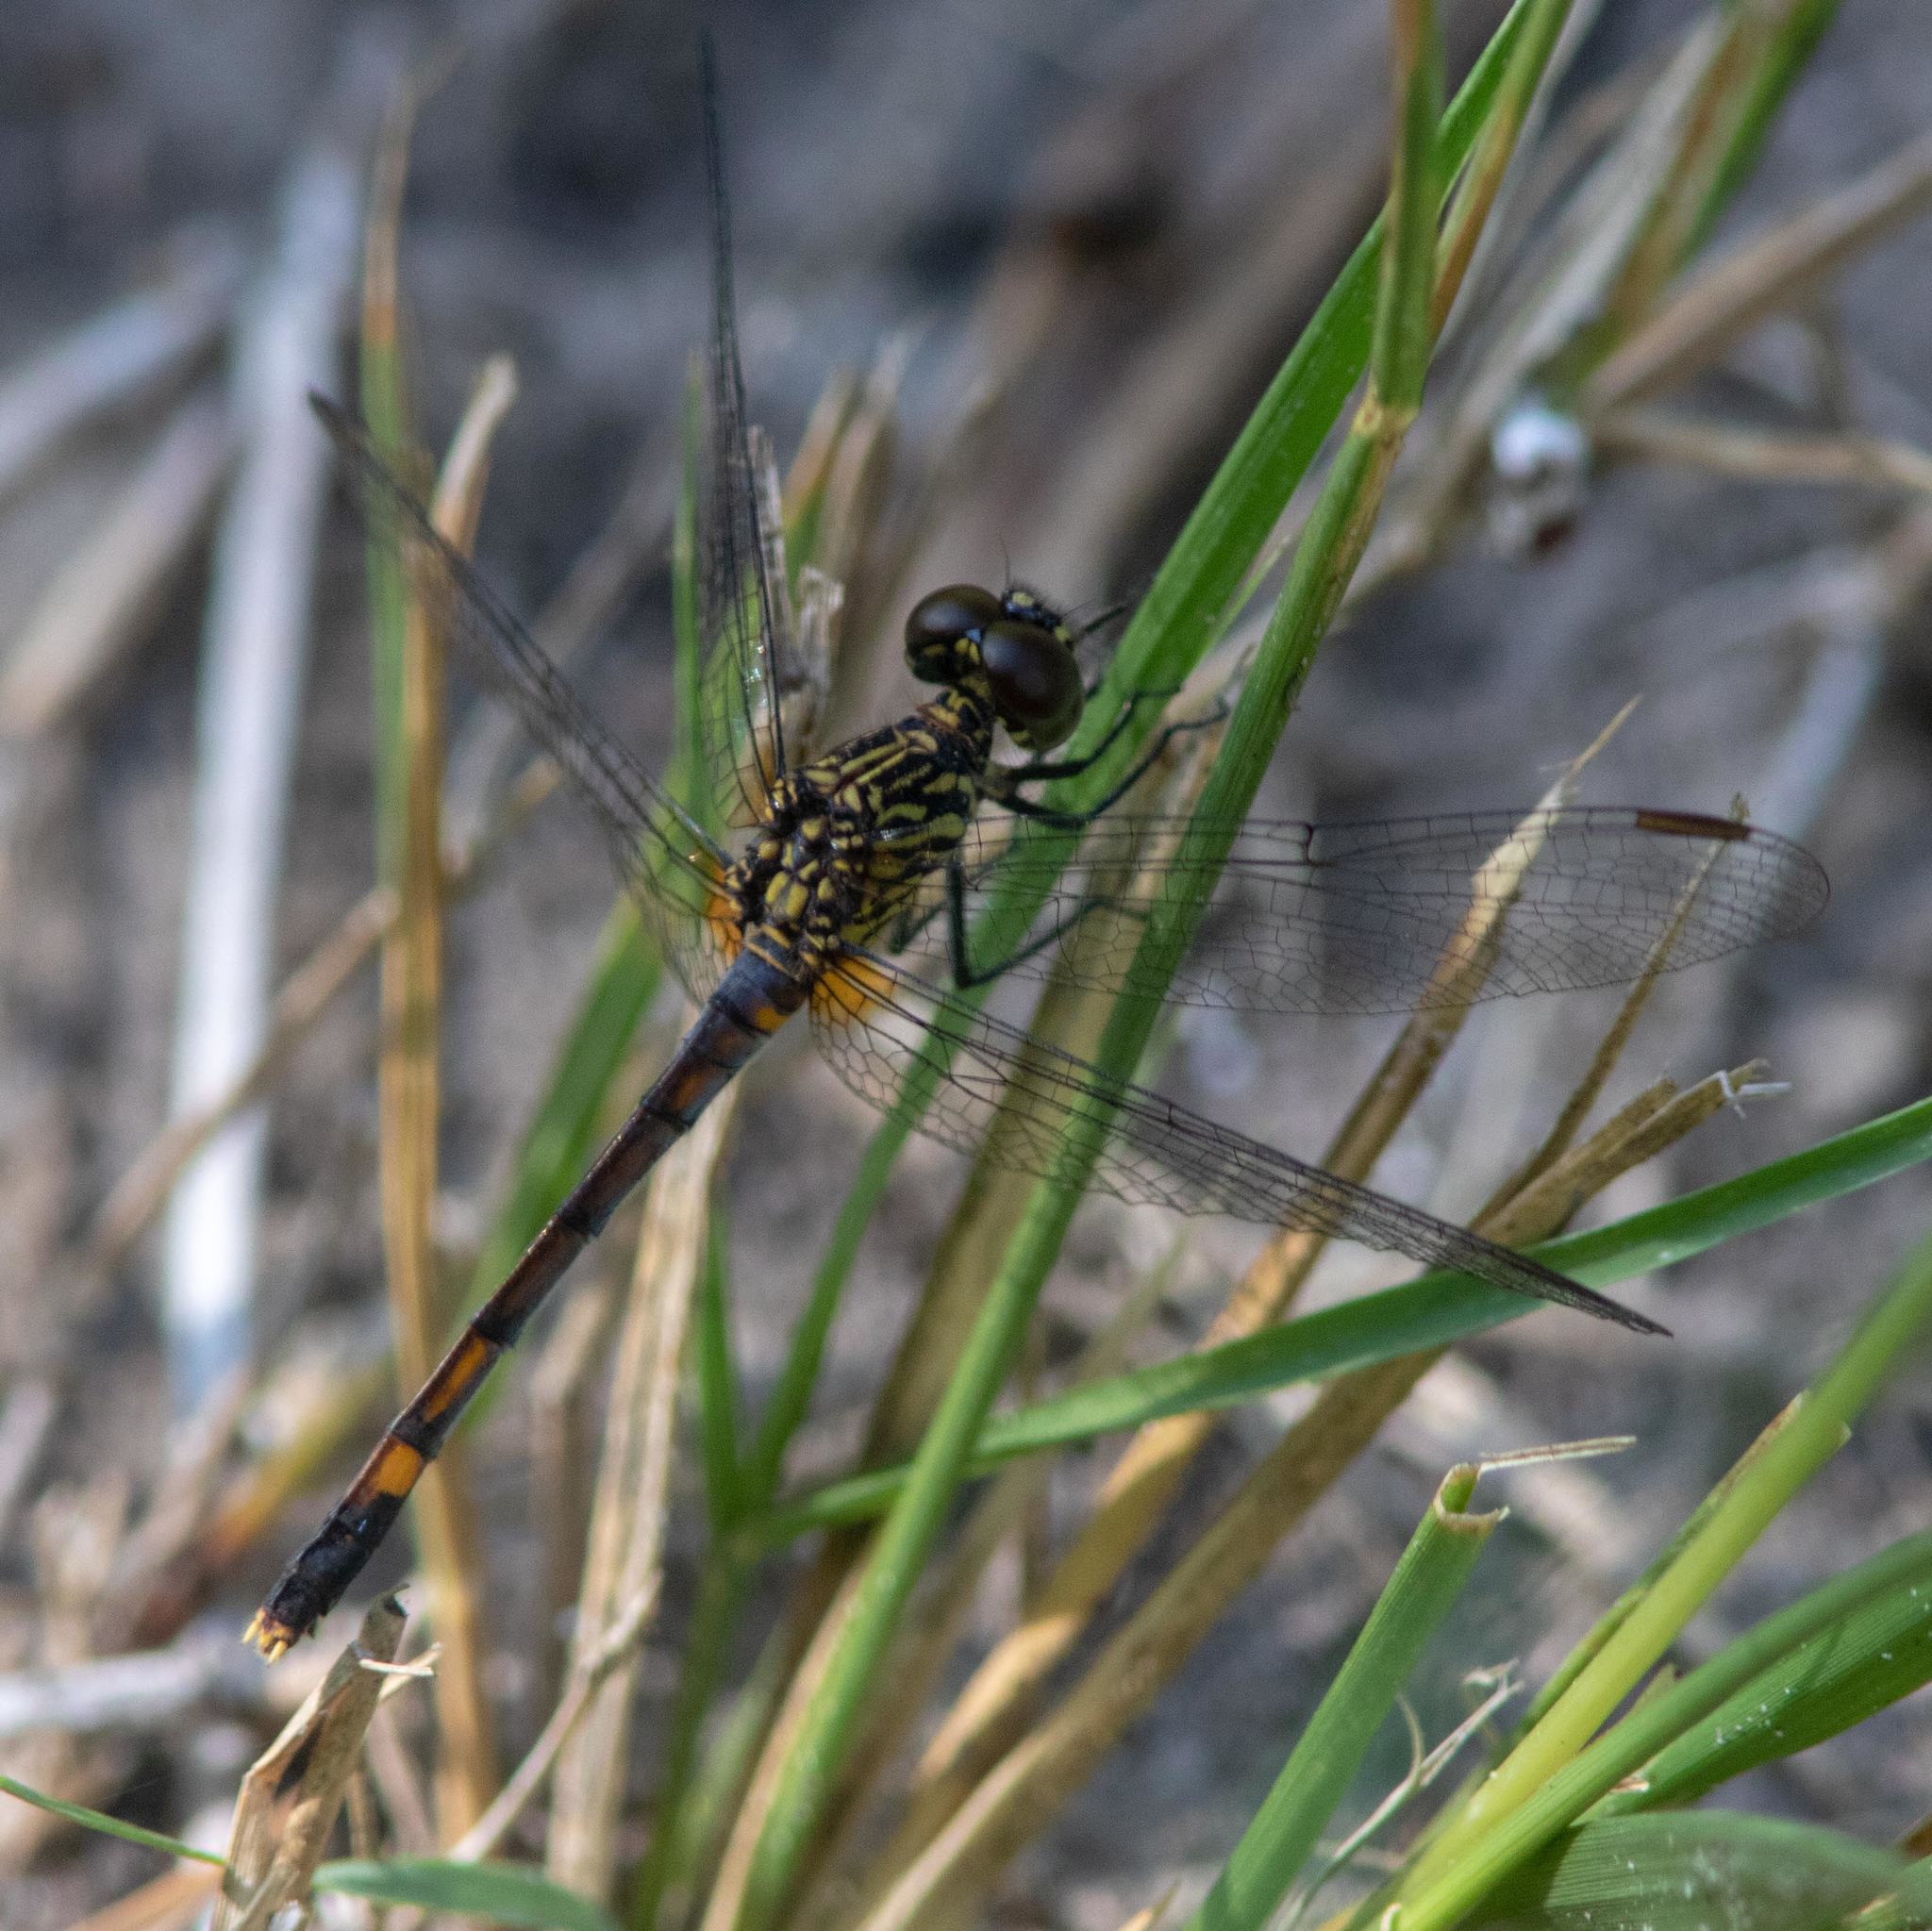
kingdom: Animalia
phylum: Arthropoda
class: Insecta
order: Odonata
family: Libellulidae
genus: Erythrodiplax
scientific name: Erythrodiplax berenice
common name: Seaside dragonlet
